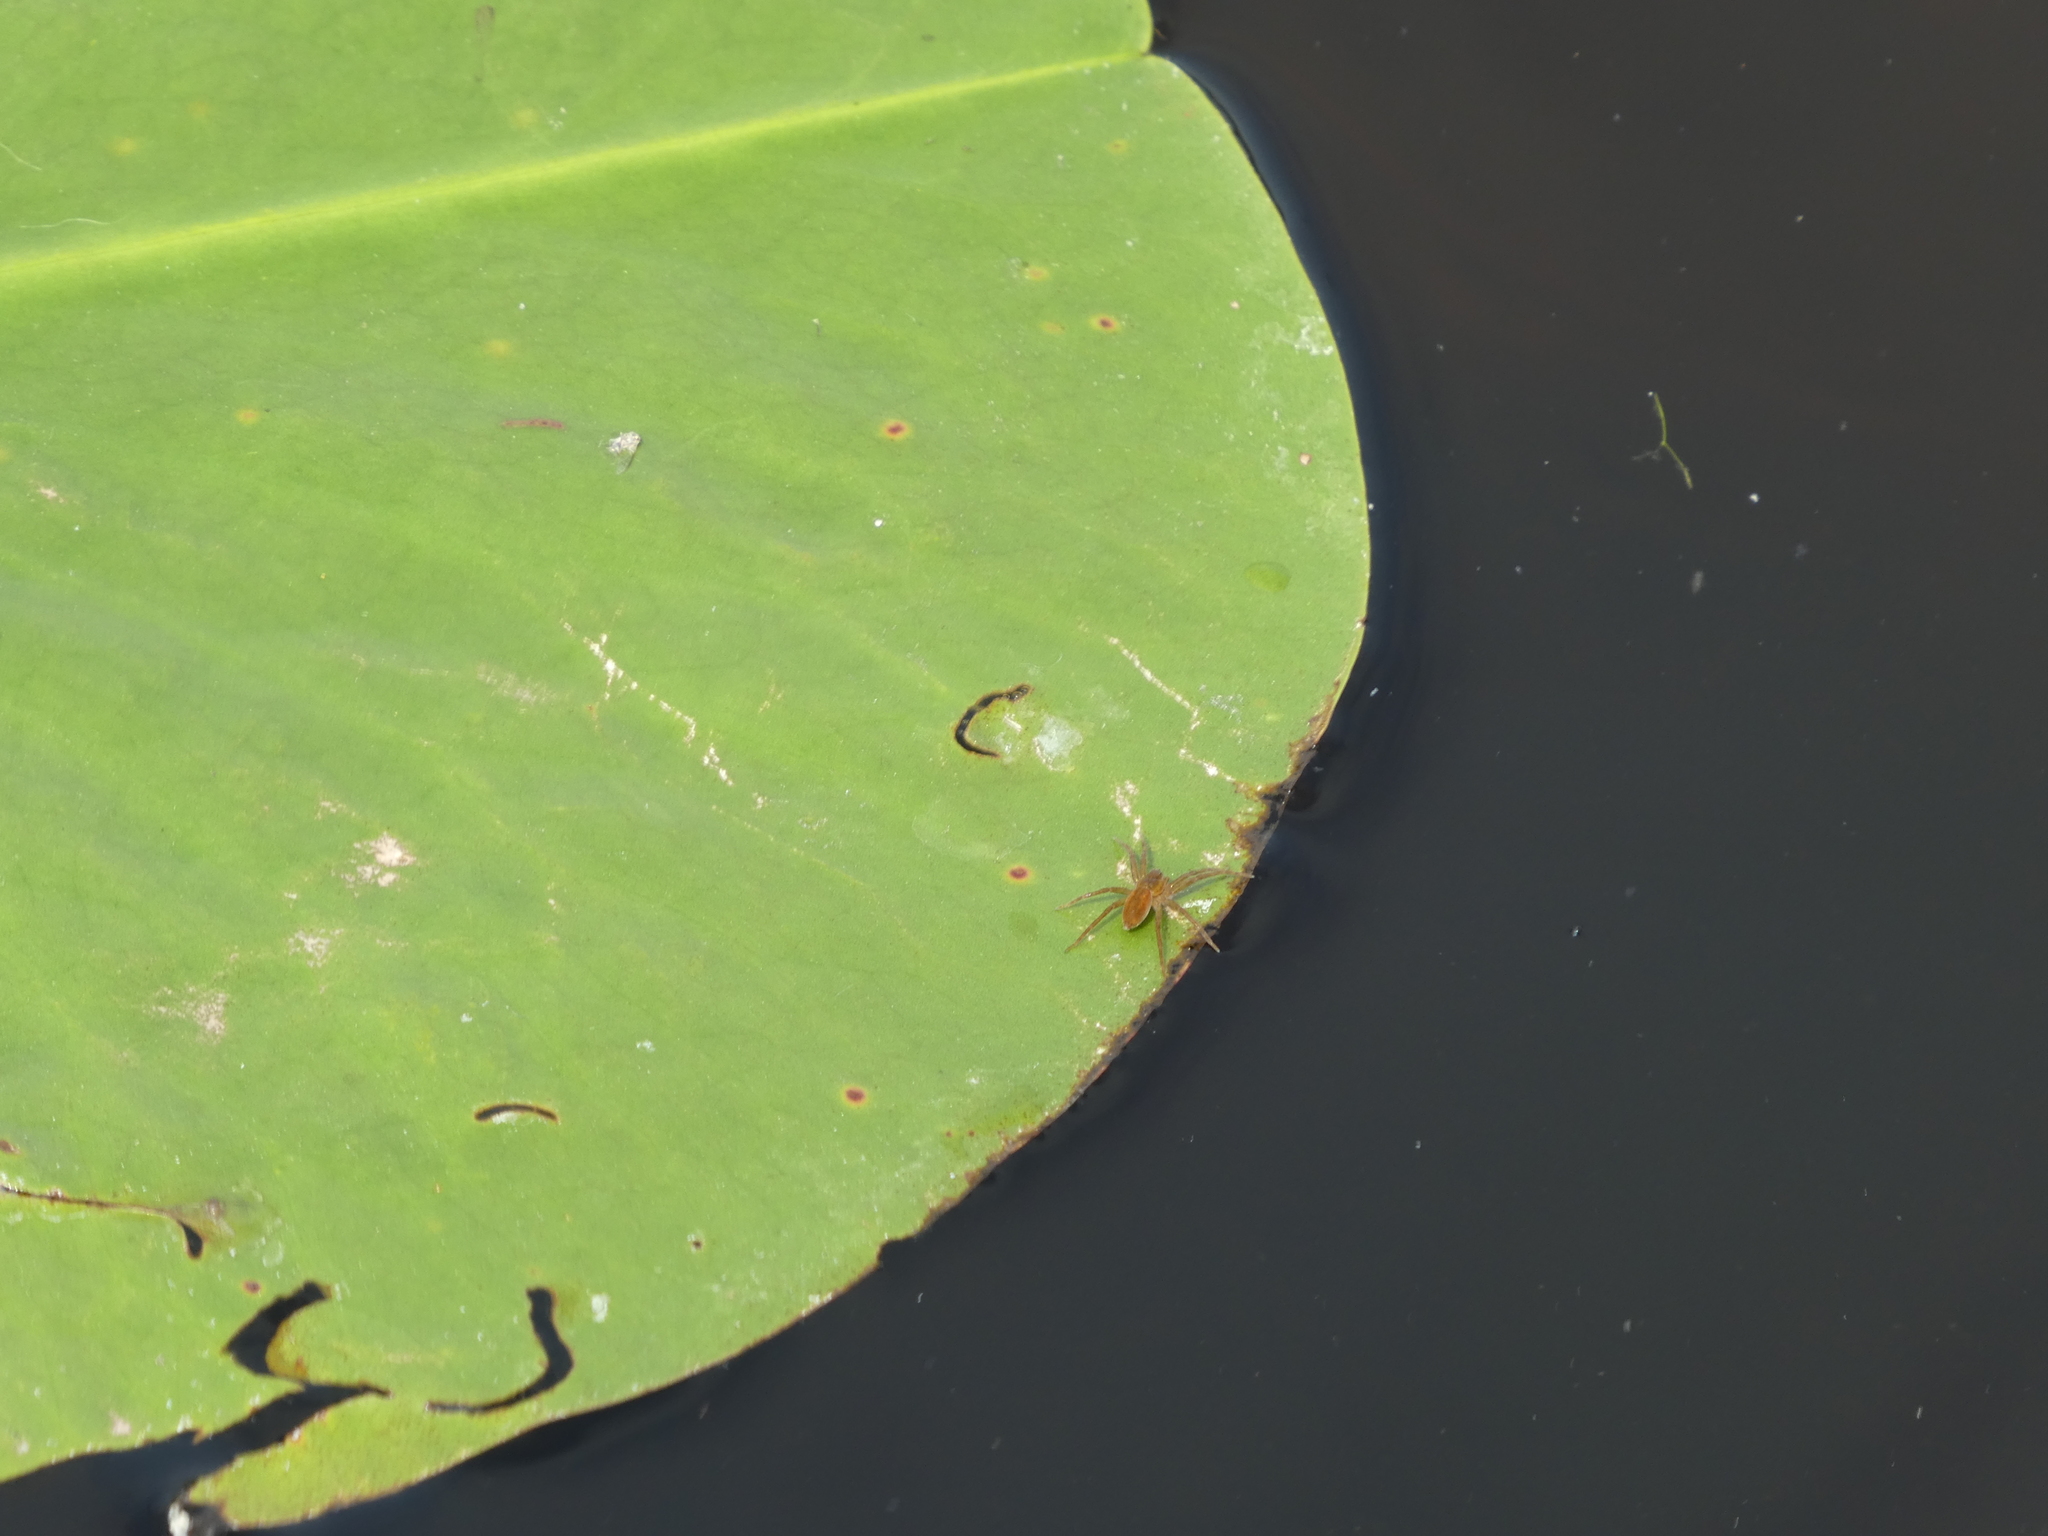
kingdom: Animalia
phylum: Arthropoda
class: Arachnida
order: Araneae
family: Pisauridae
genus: Dolomedes
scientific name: Dolomedes triton
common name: Six-spotted fishing spider
